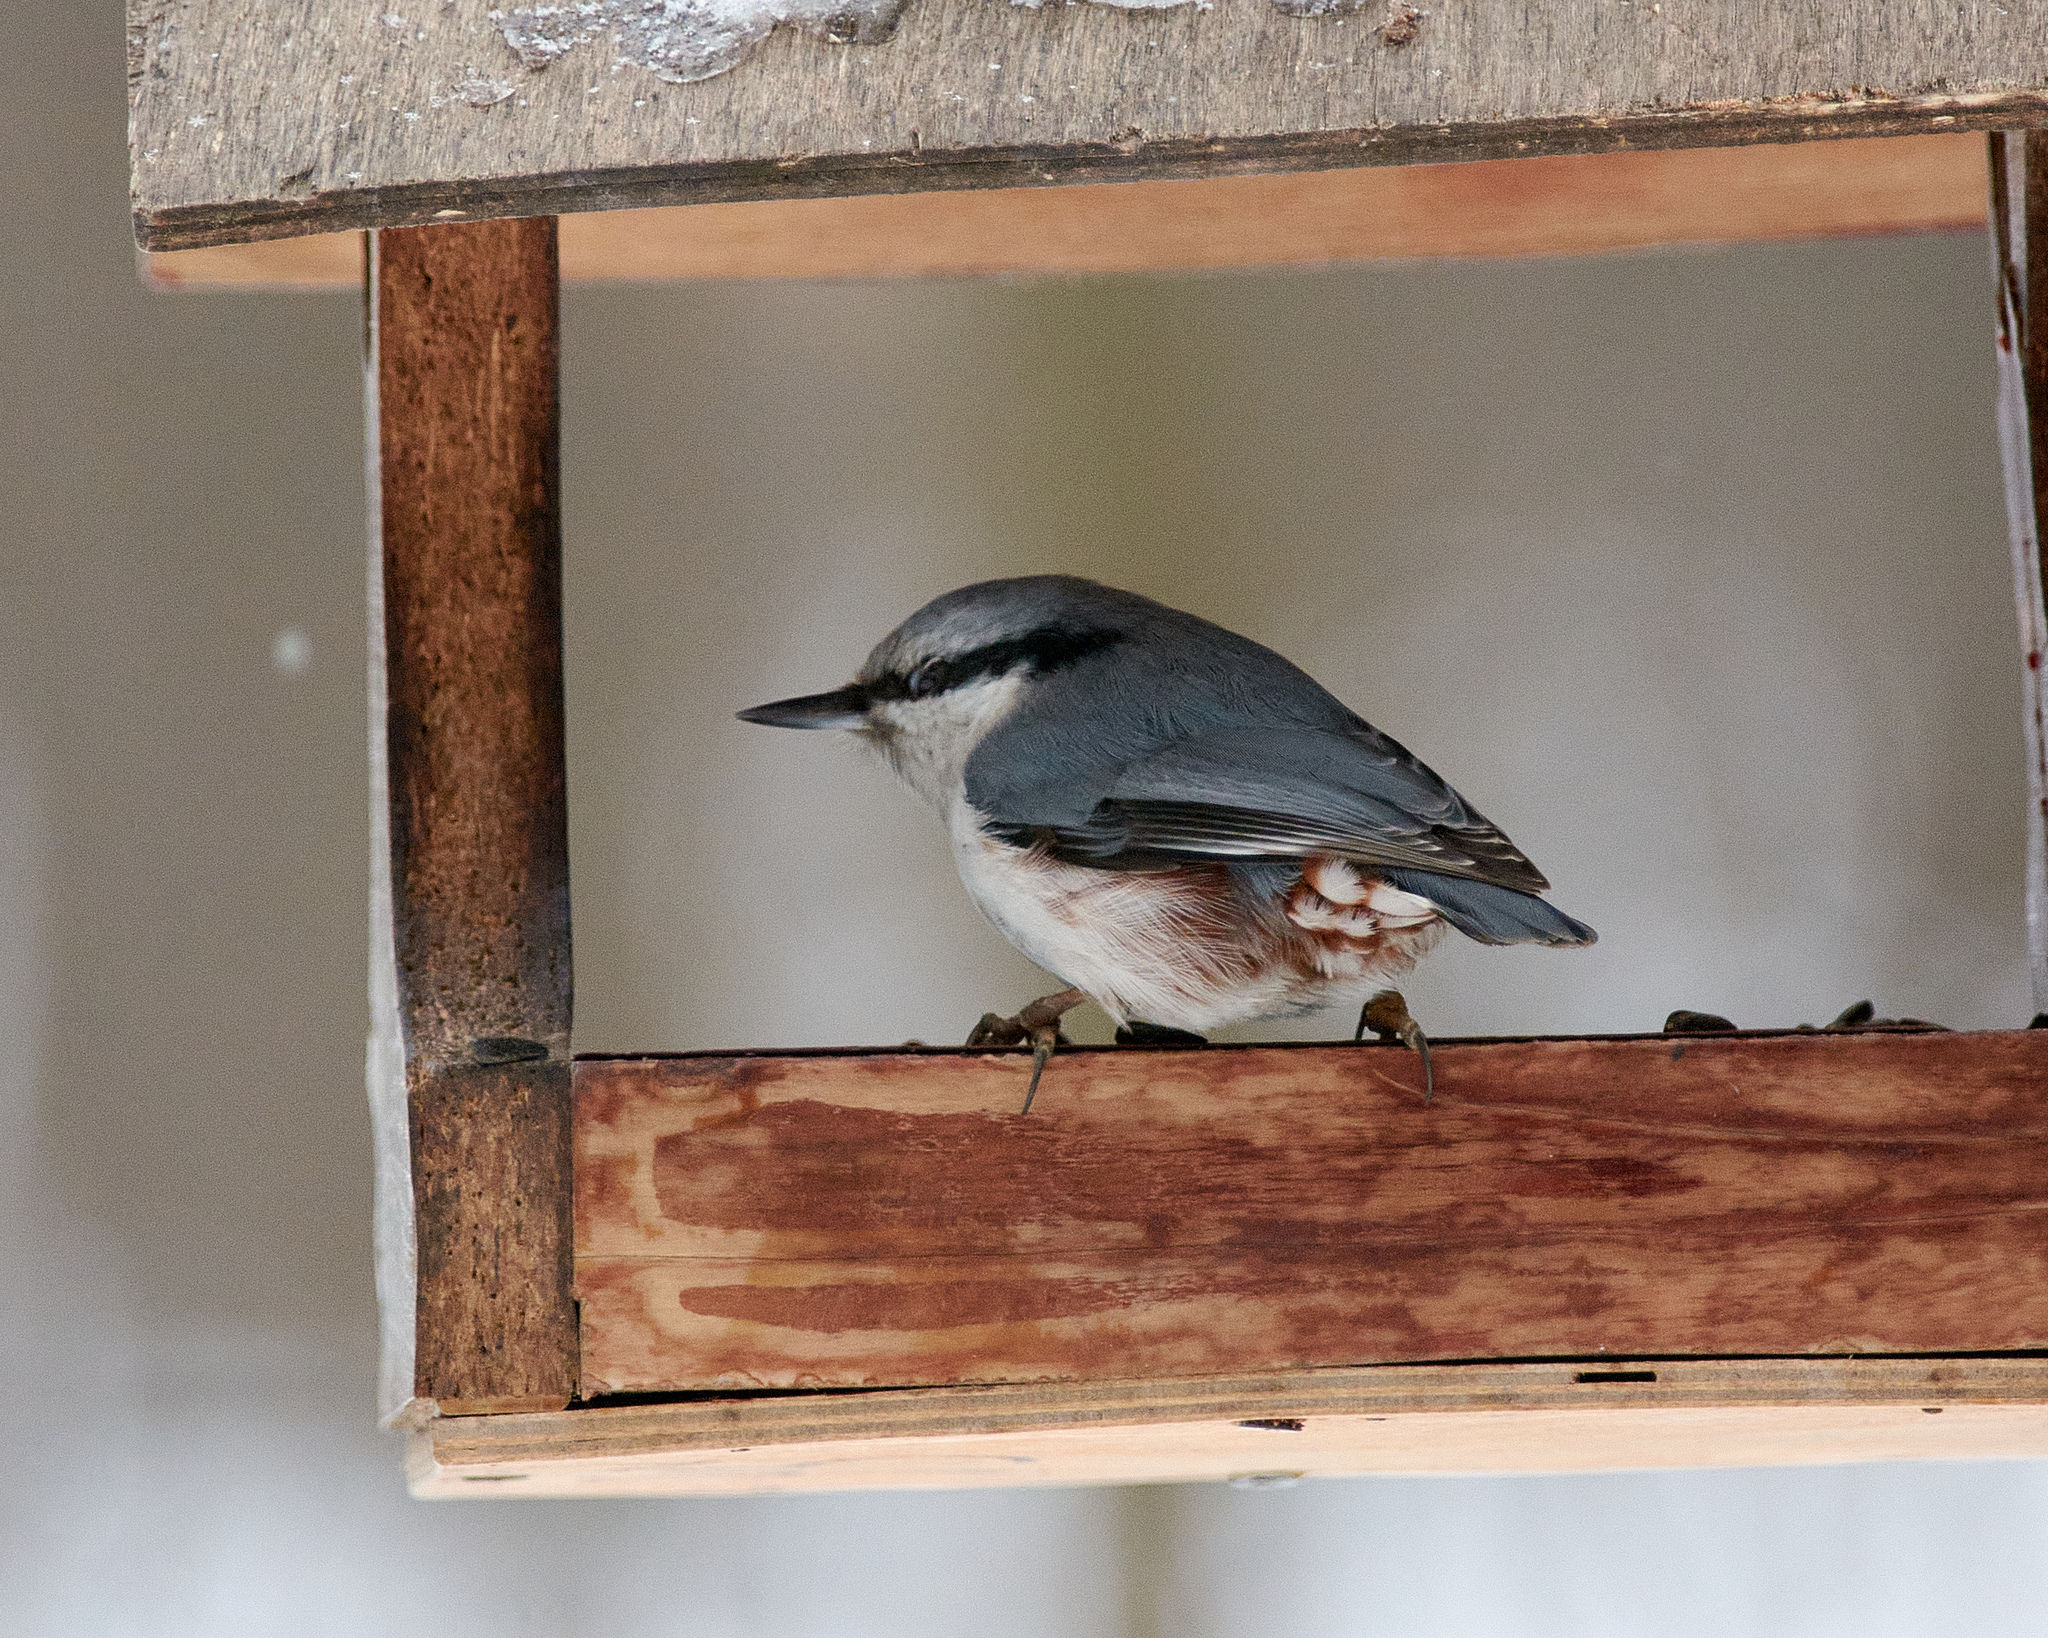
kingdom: Animalia
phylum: Chordata
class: Aves
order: Passeriformes
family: Sittidae
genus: Sitta
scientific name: Sitta europaea
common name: Eurasian nuthatch
